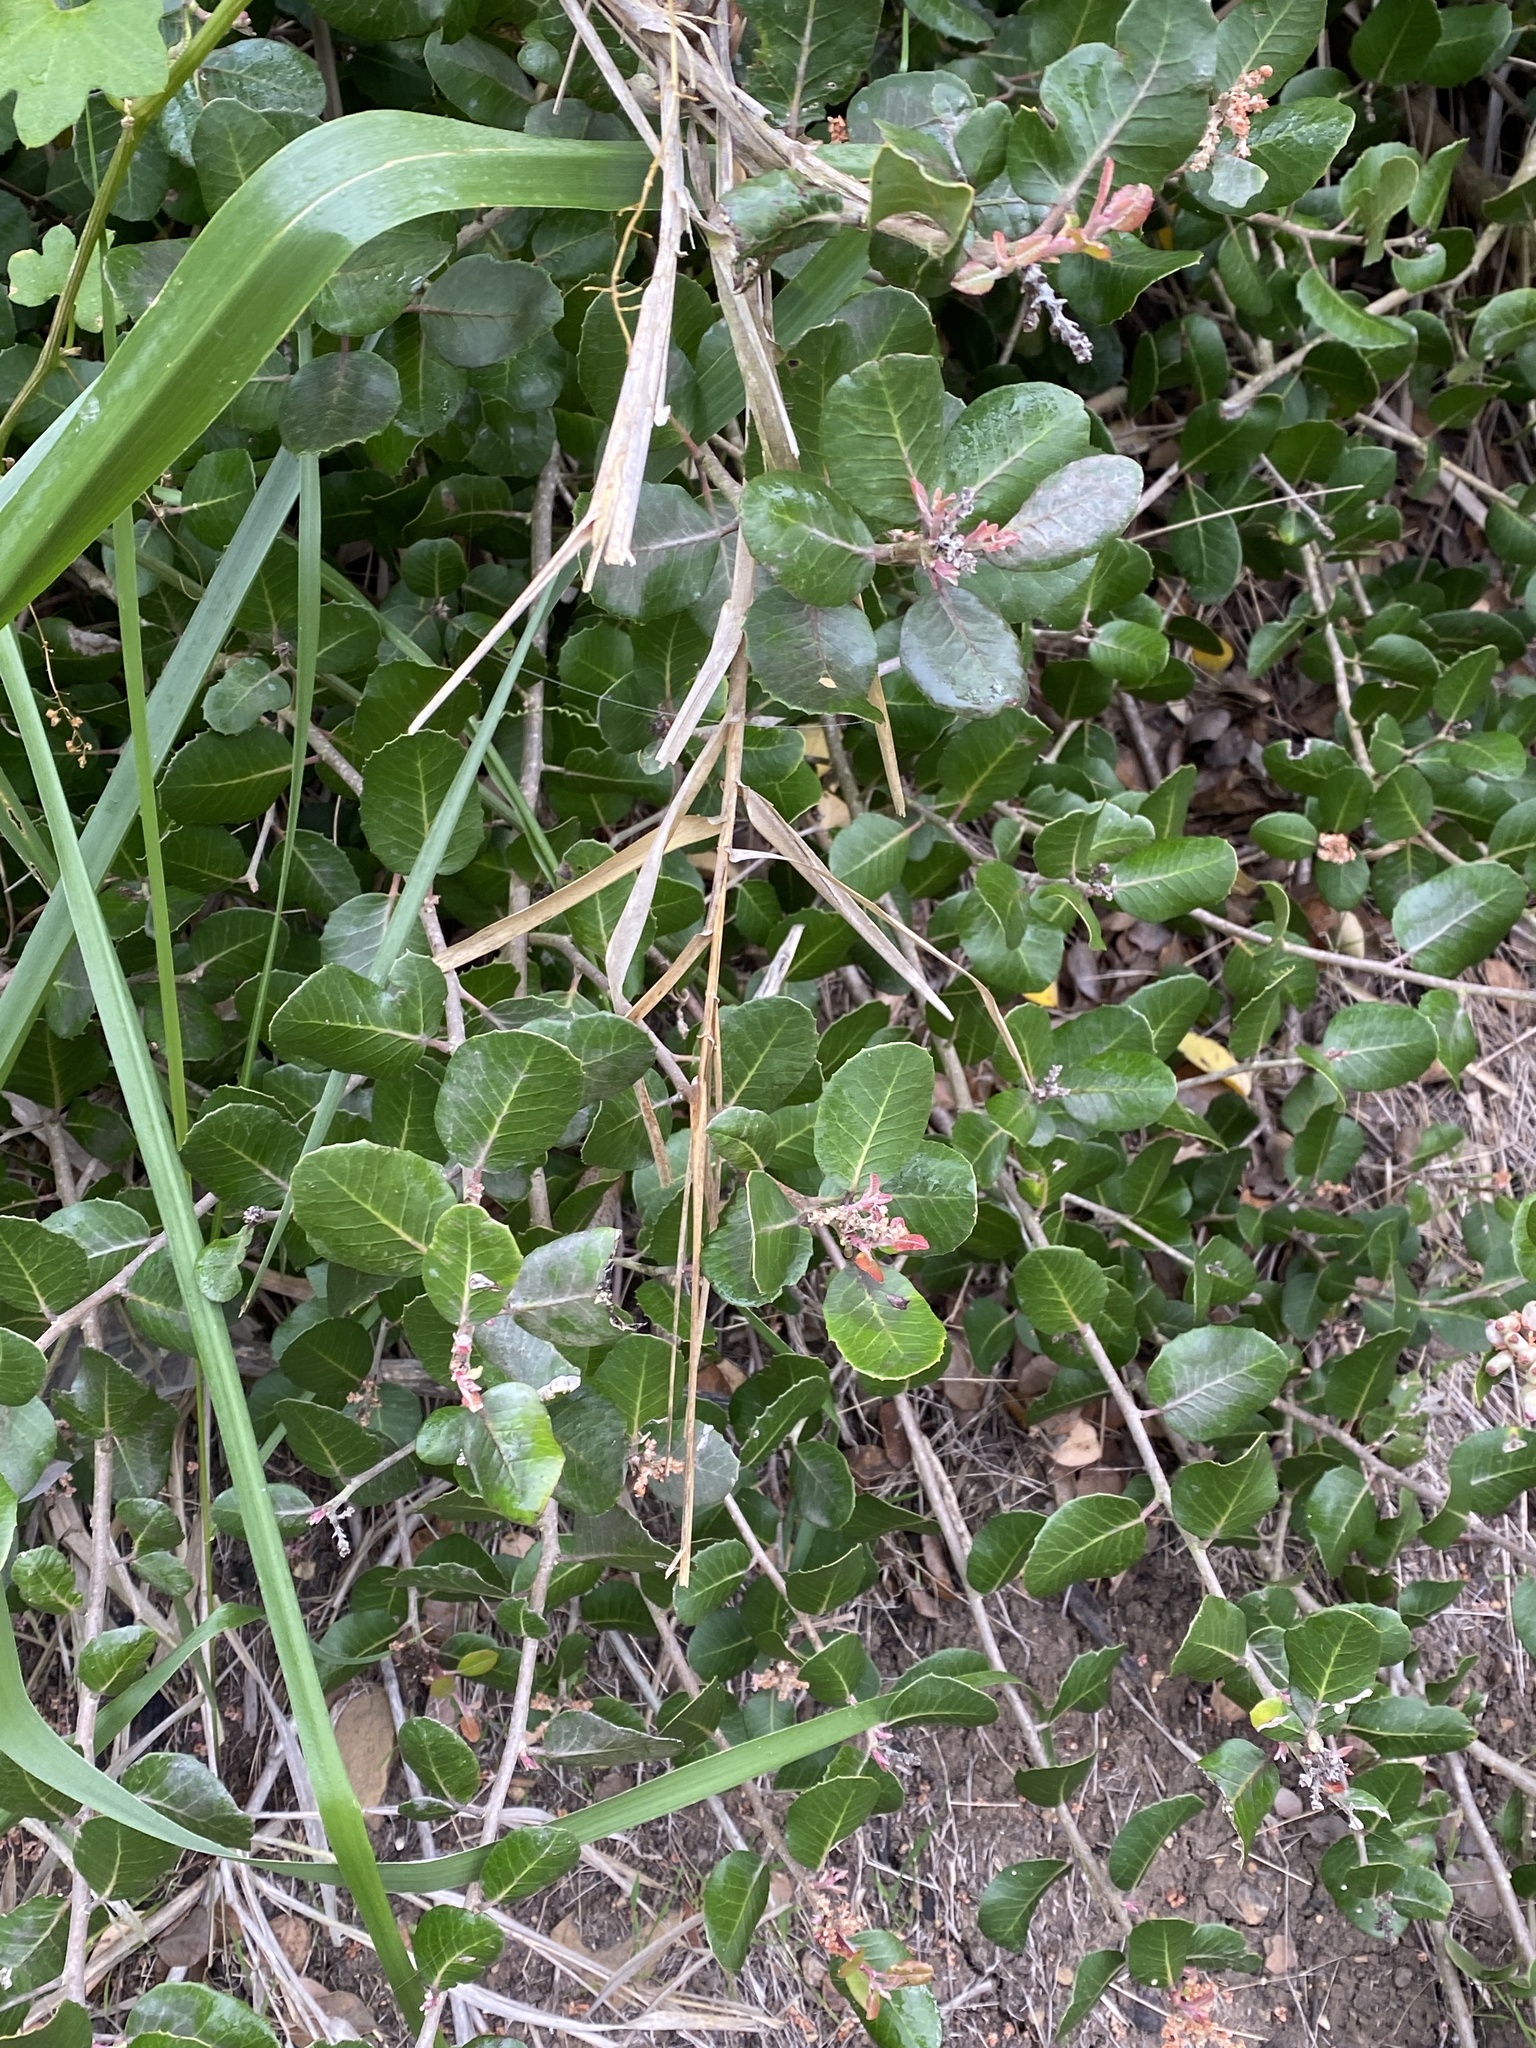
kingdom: Plantae
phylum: Tracheophyta
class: Magnoliopsida
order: Sapindales
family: Anacardiaceae
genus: Rhus
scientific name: Rhus integrifolia
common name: Lemonade sumac
